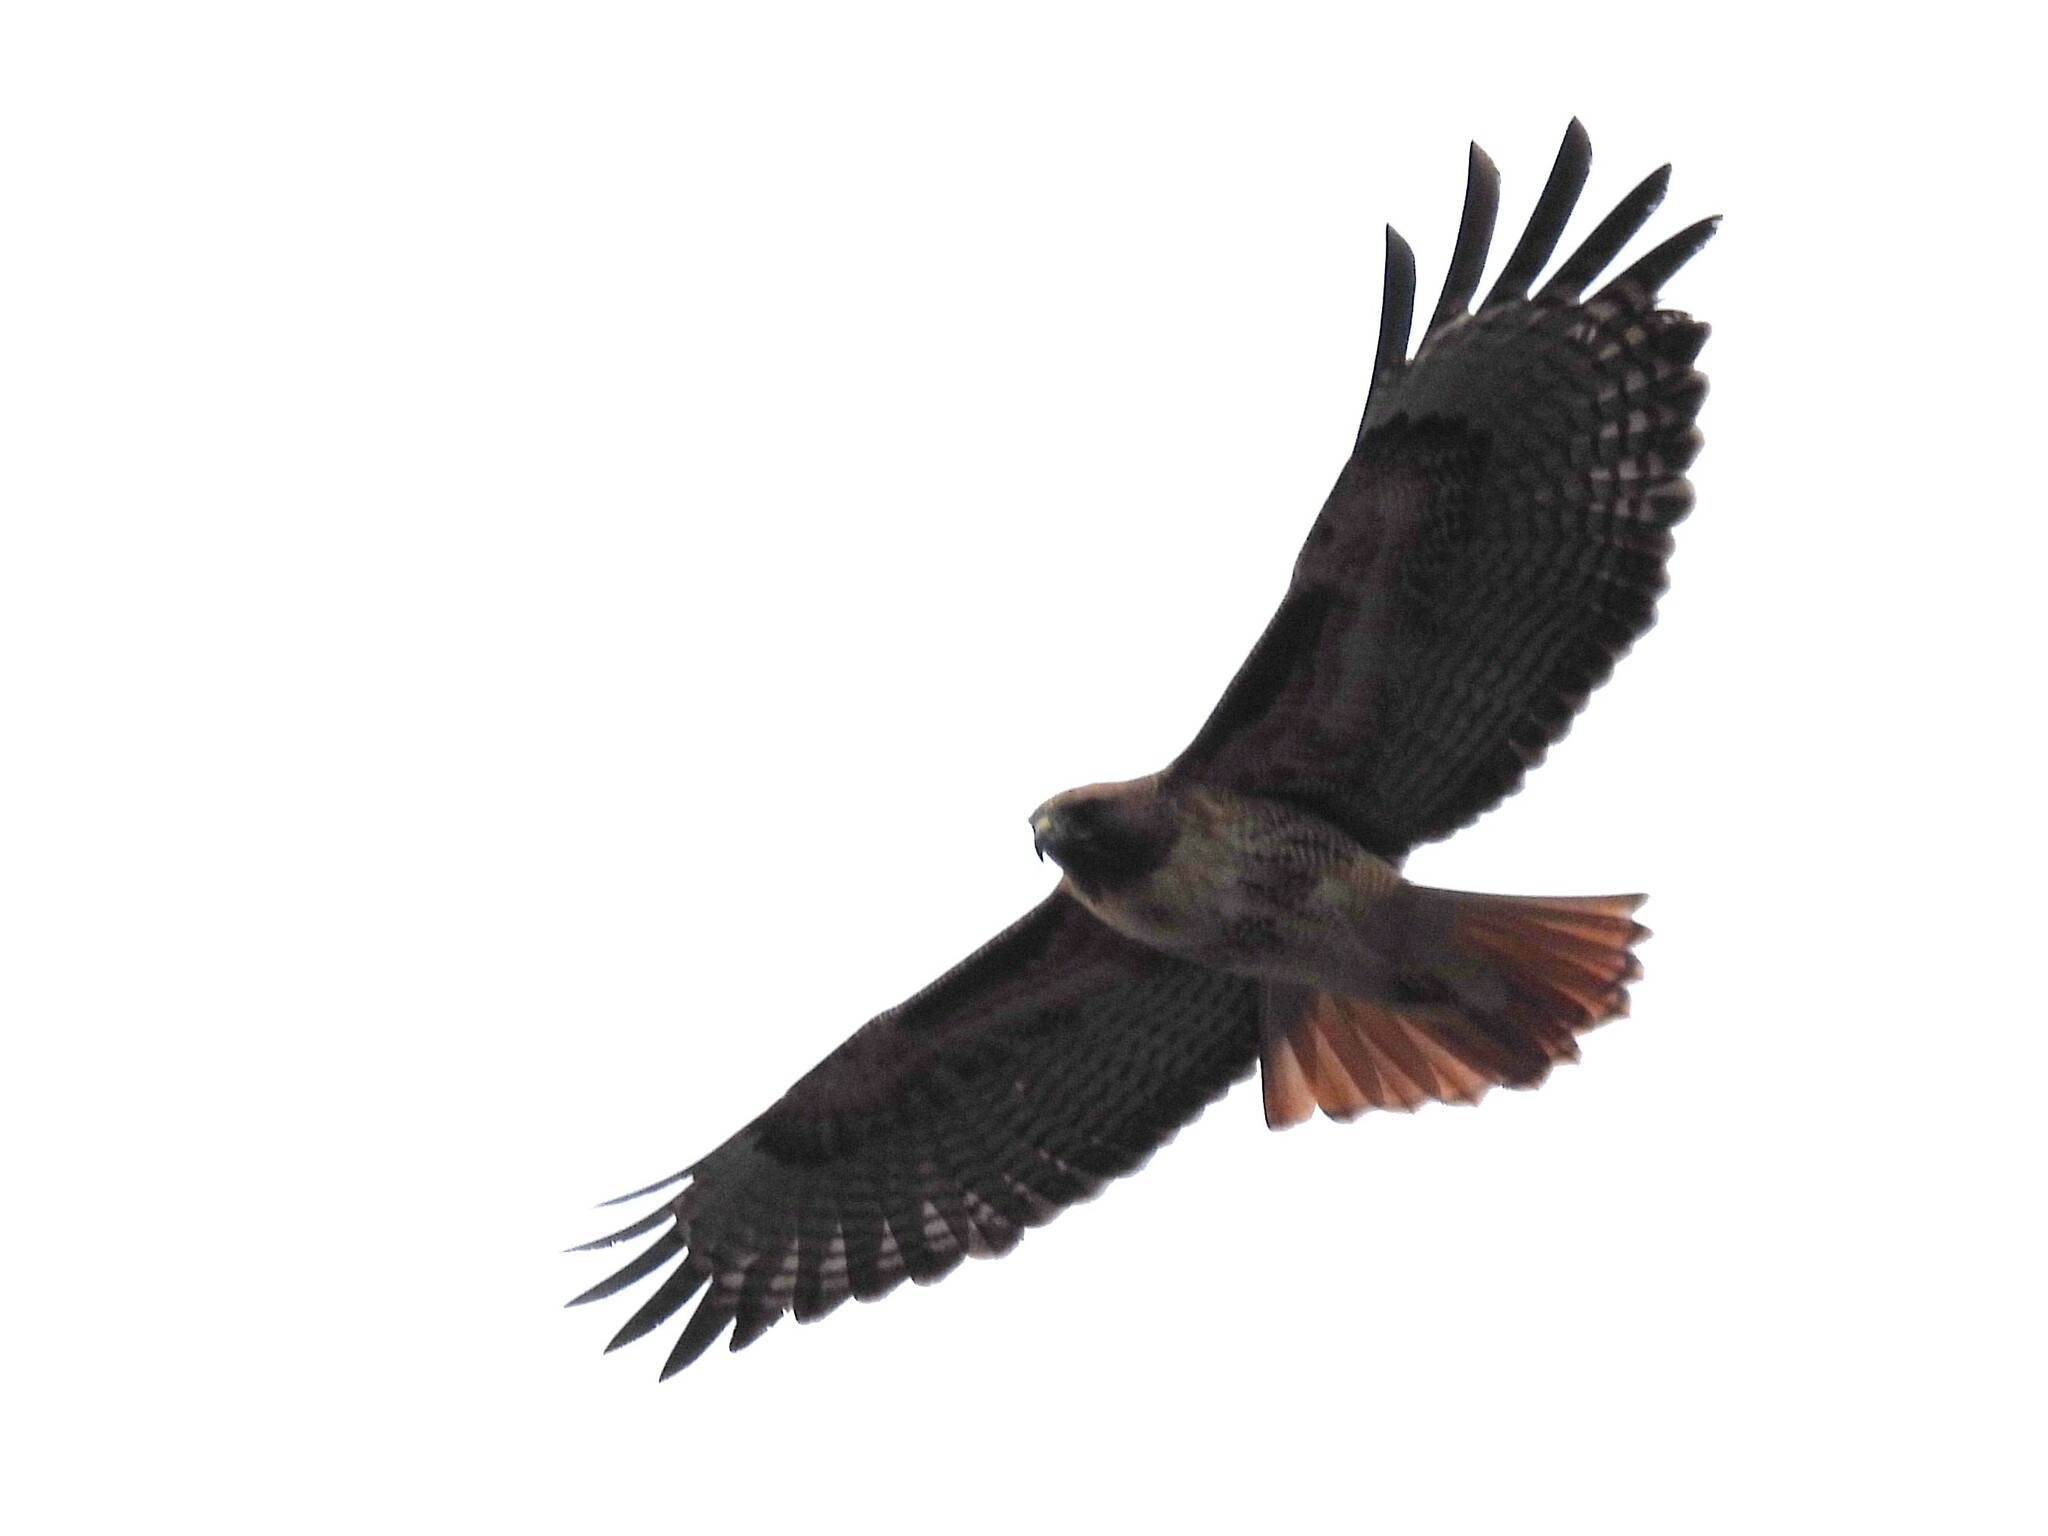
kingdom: Animalia
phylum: Chordata
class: Aves
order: Accipitriformes
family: Accipitridae
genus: Buteo
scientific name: Buteo jamaicensis
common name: Red-tailed hawk
